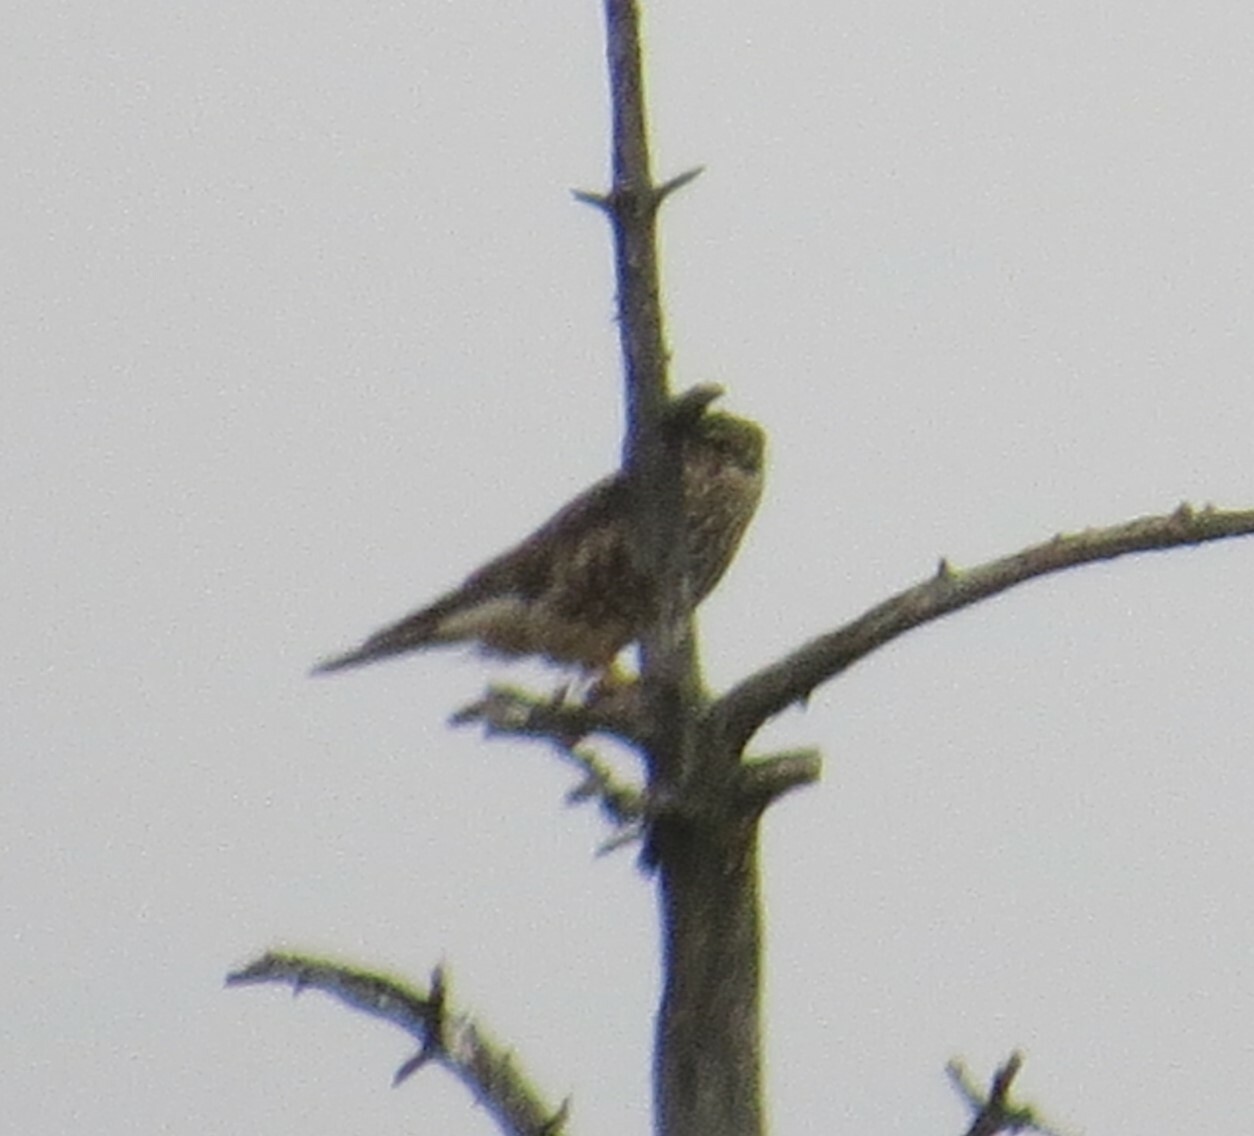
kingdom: Animalia
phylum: Chordata
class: Aves
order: Falconiformes
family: Falconidae
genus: Falco
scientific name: Falco columbarius
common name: Merlin
